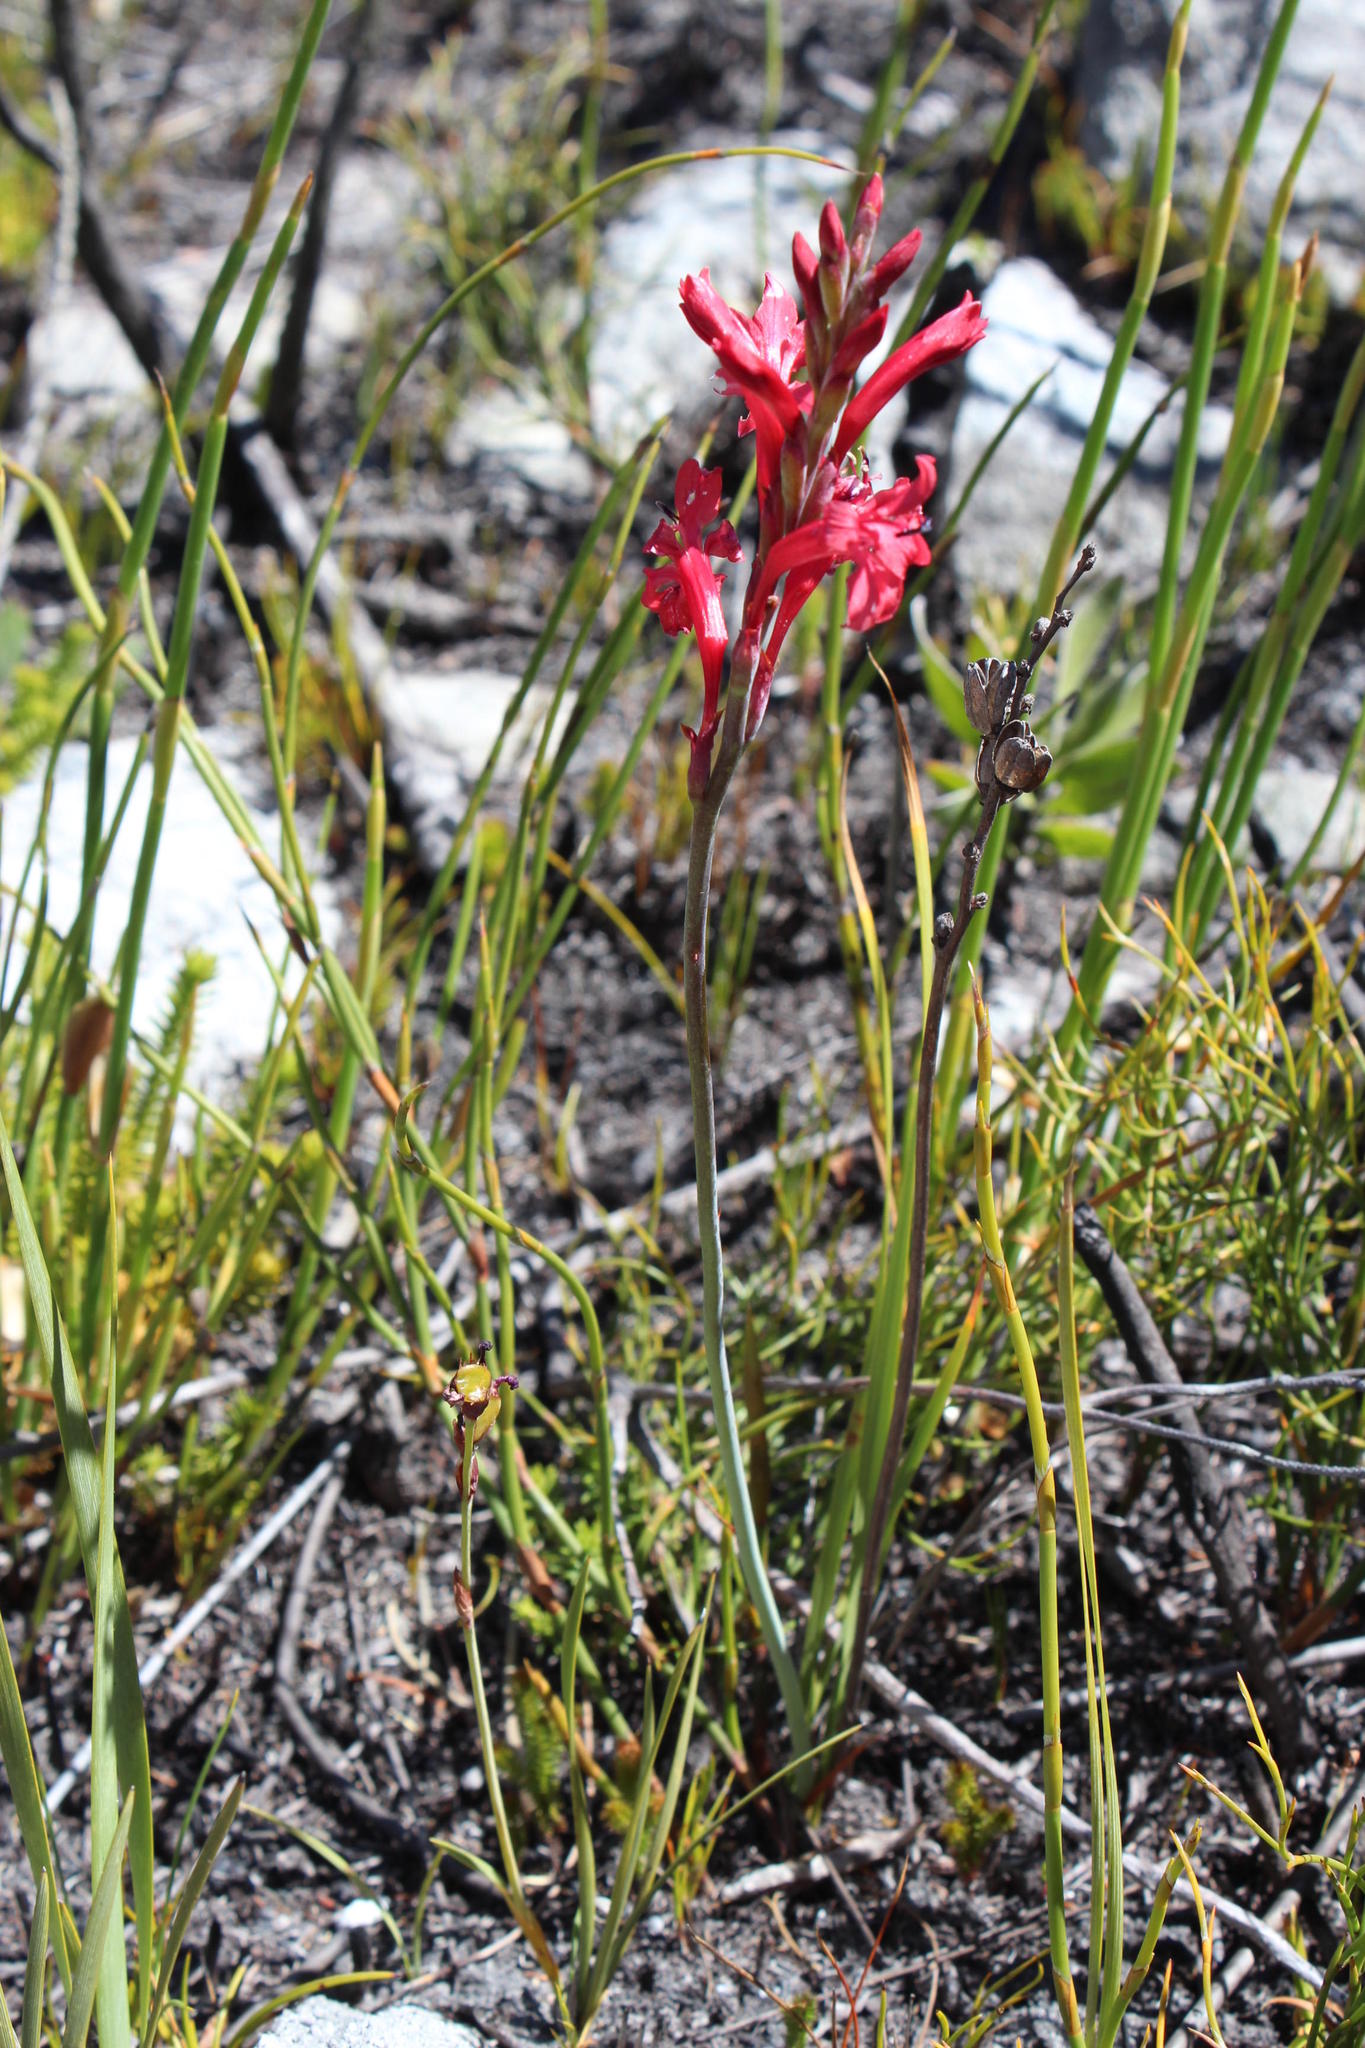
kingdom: Plantae
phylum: Tracheophyta
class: Liliopsida
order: Asparagales
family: Iridaceae
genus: Tritoniopsis
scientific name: Tritoniopsis pulchra
